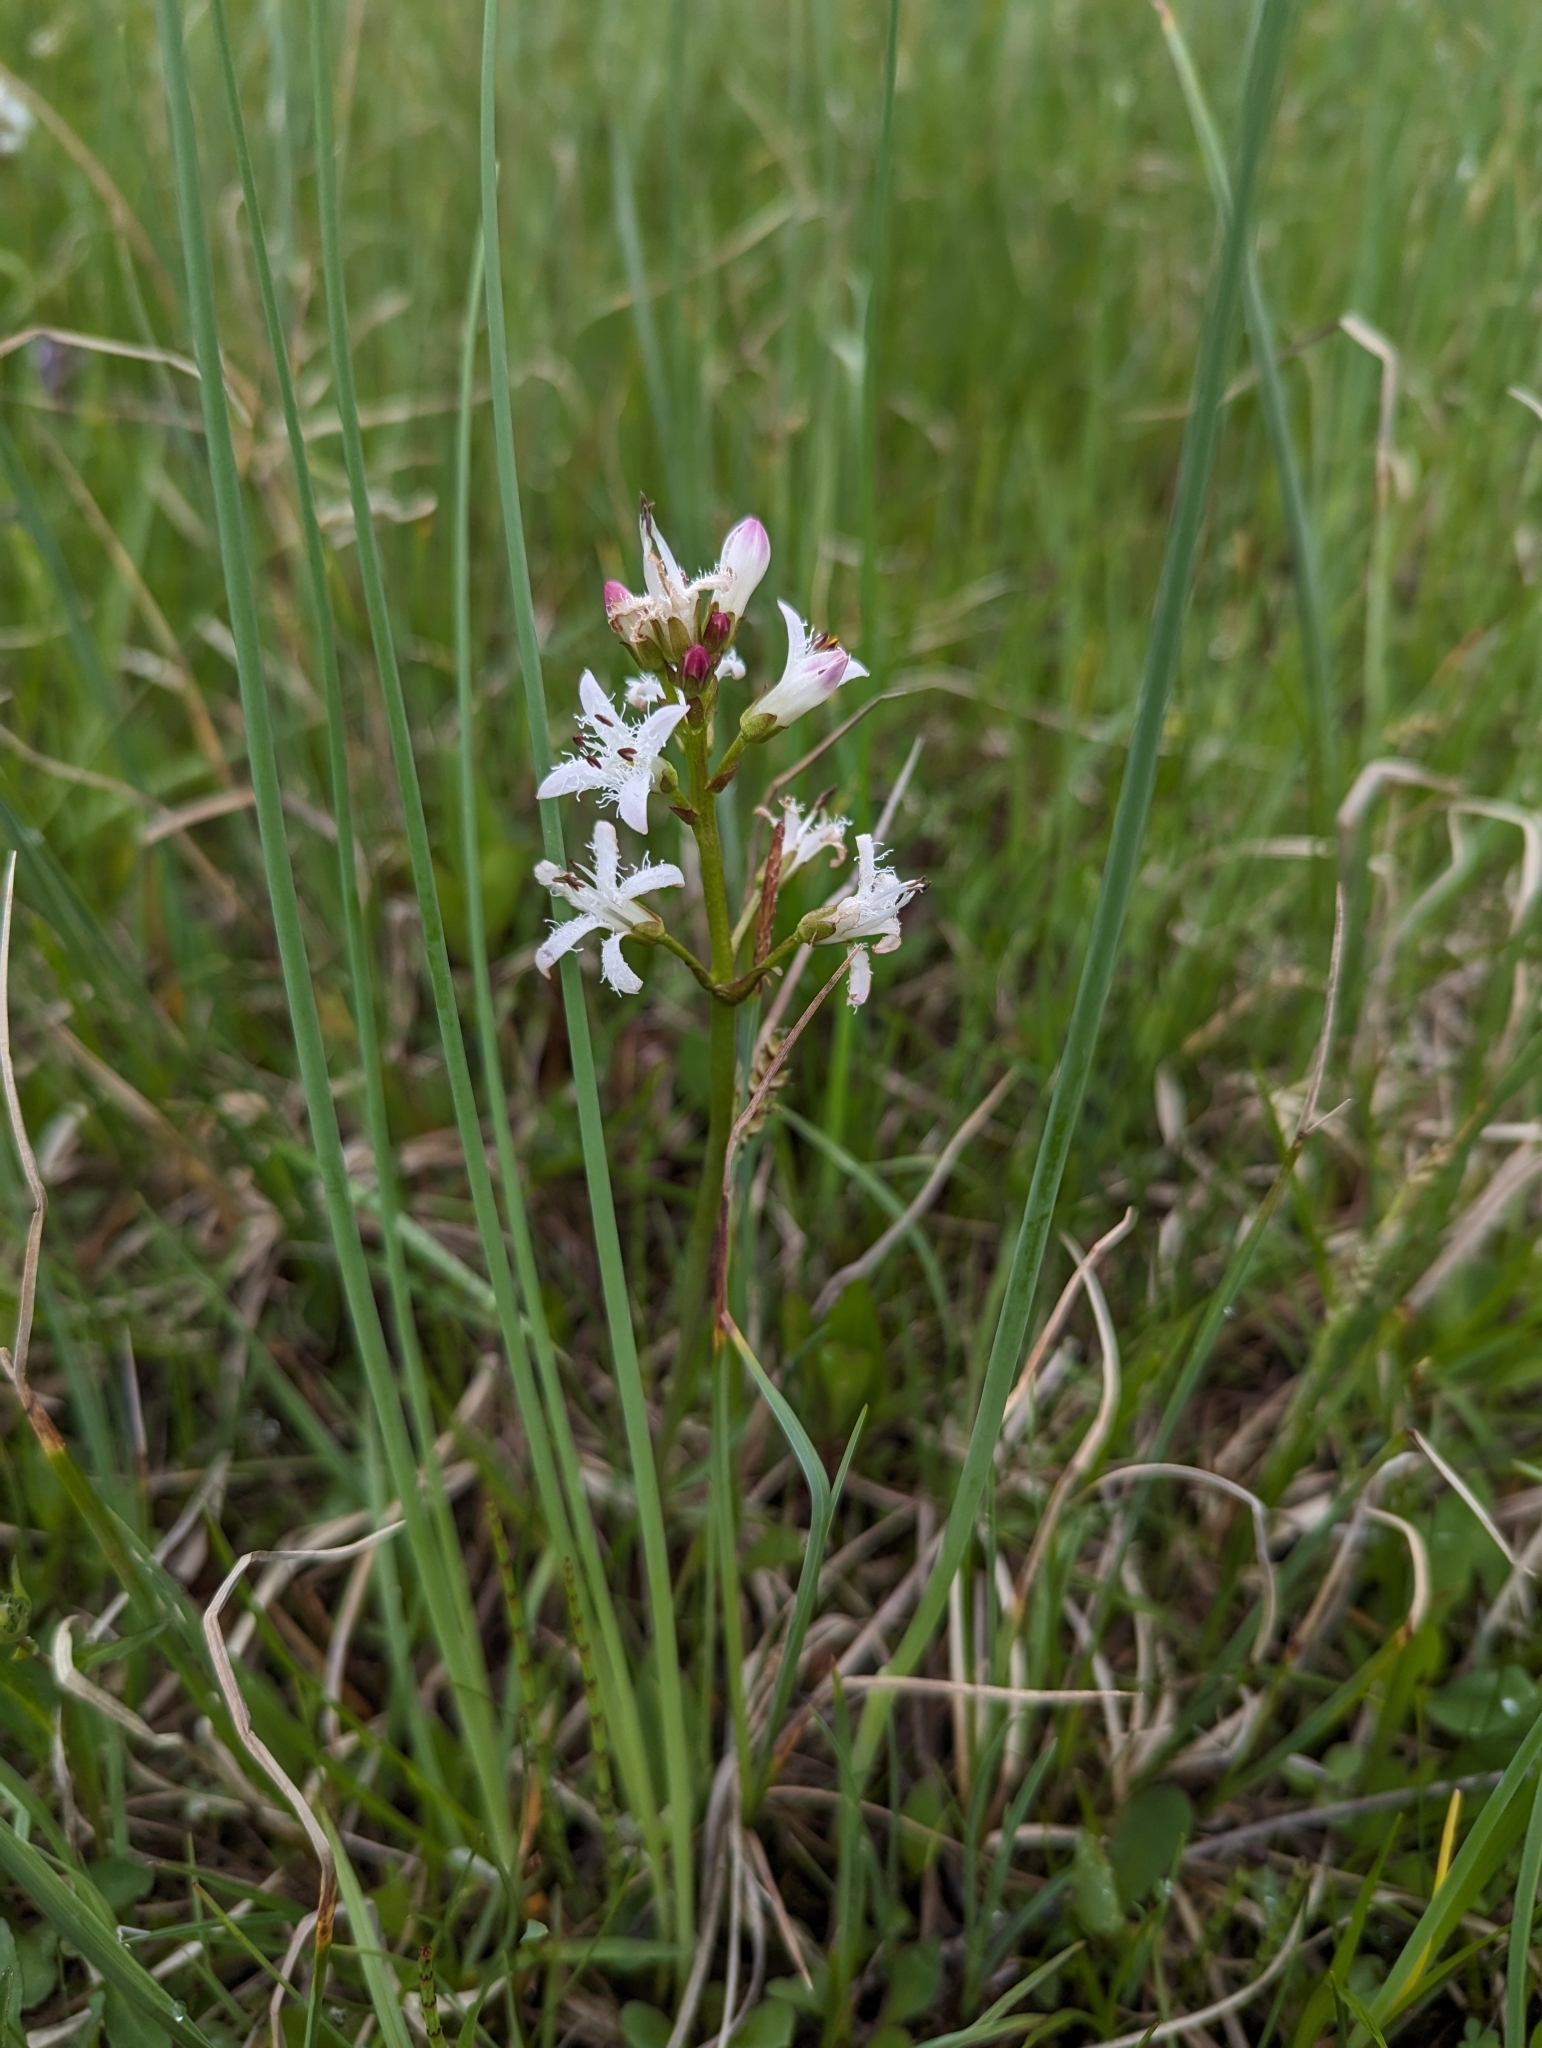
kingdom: Plantae
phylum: Tracheophyta
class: Magnoliopsida
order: Asterales
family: Menyanthaceae
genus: Menyanthes
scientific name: Menyanthes trifoliata
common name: Bogbean
